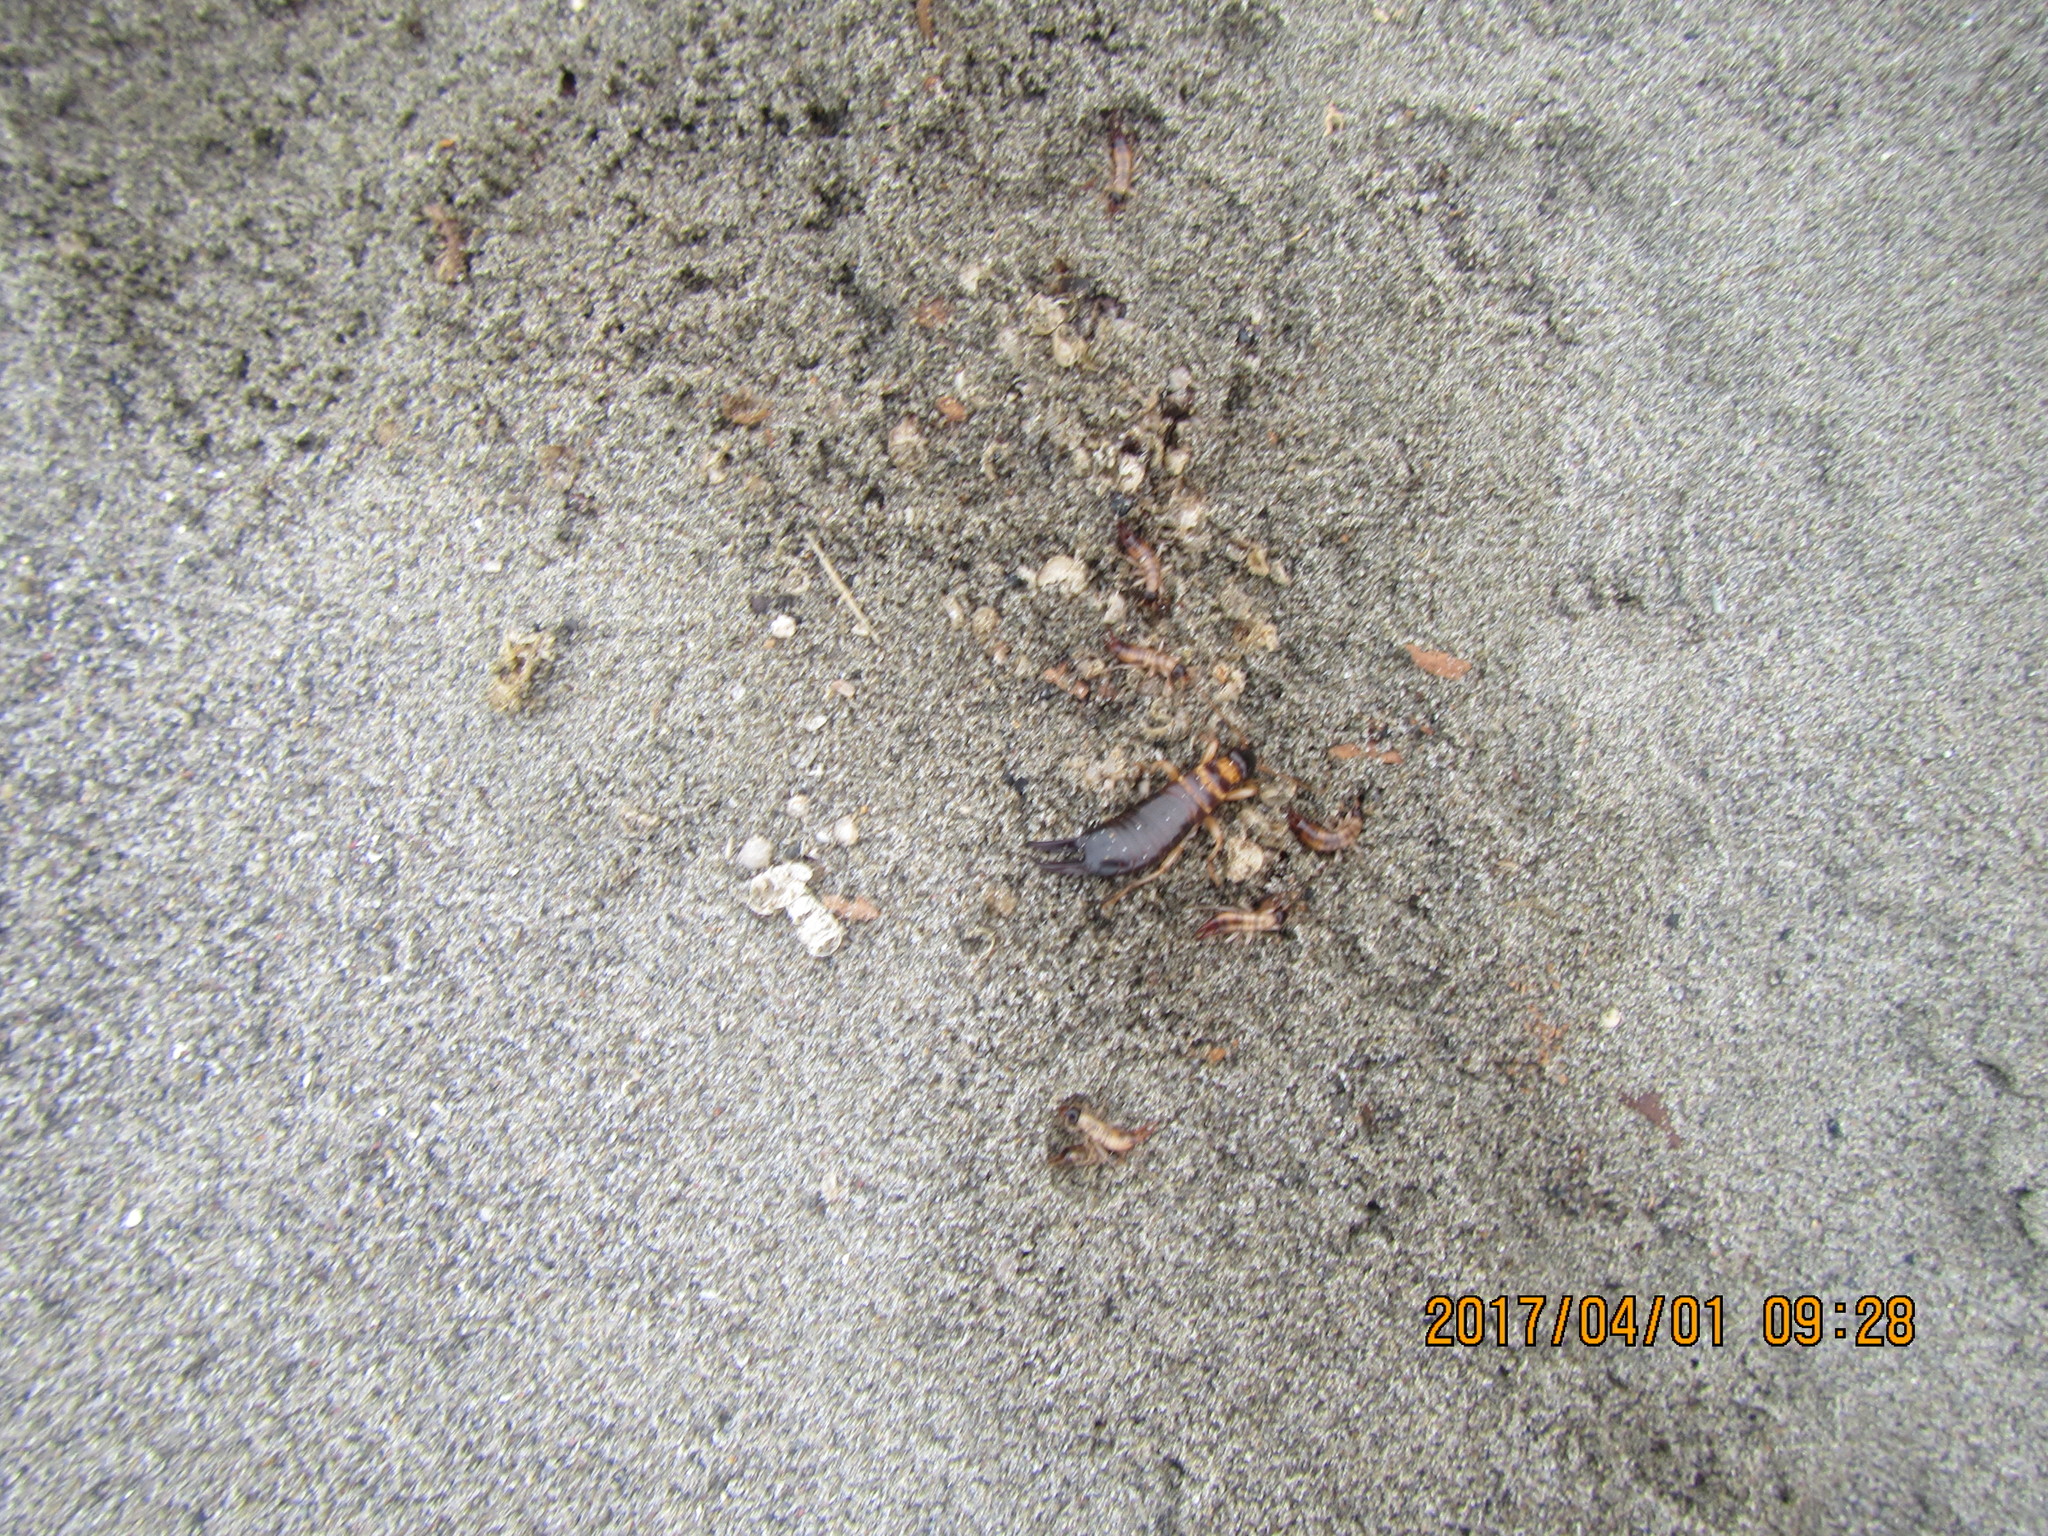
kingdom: Animalia
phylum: Arthropoda
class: Insecta
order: Dermaptera
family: Anisolabididae
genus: Anisolabis
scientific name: Anisolabis littorea
